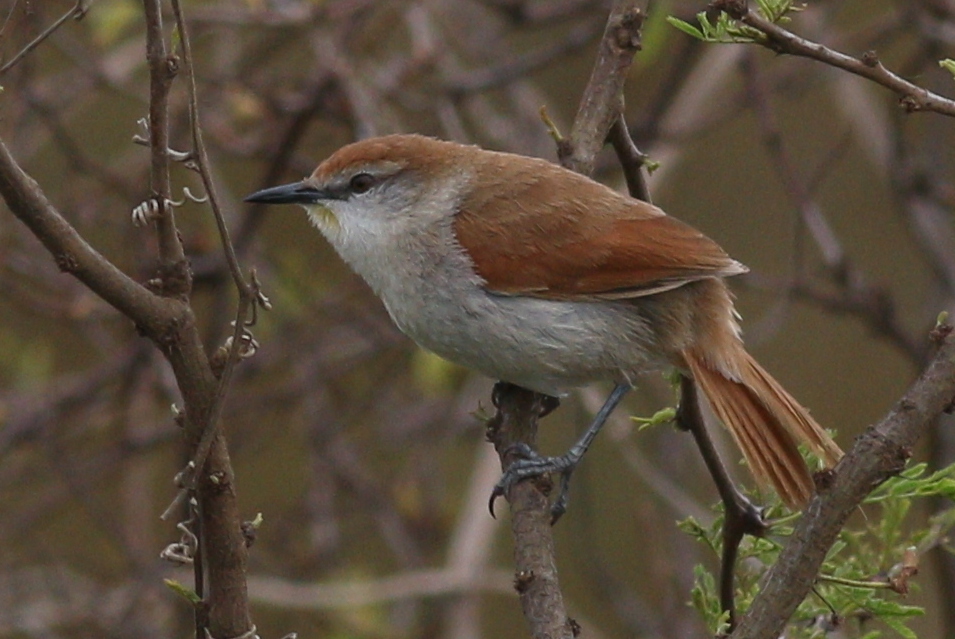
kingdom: Animalia
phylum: Chordata
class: Aves
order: Passeriformes
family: Furnariidae
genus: Certhiaxis
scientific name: Certhiaxis cinnamomeus
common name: Yellow-chinned spinetail
